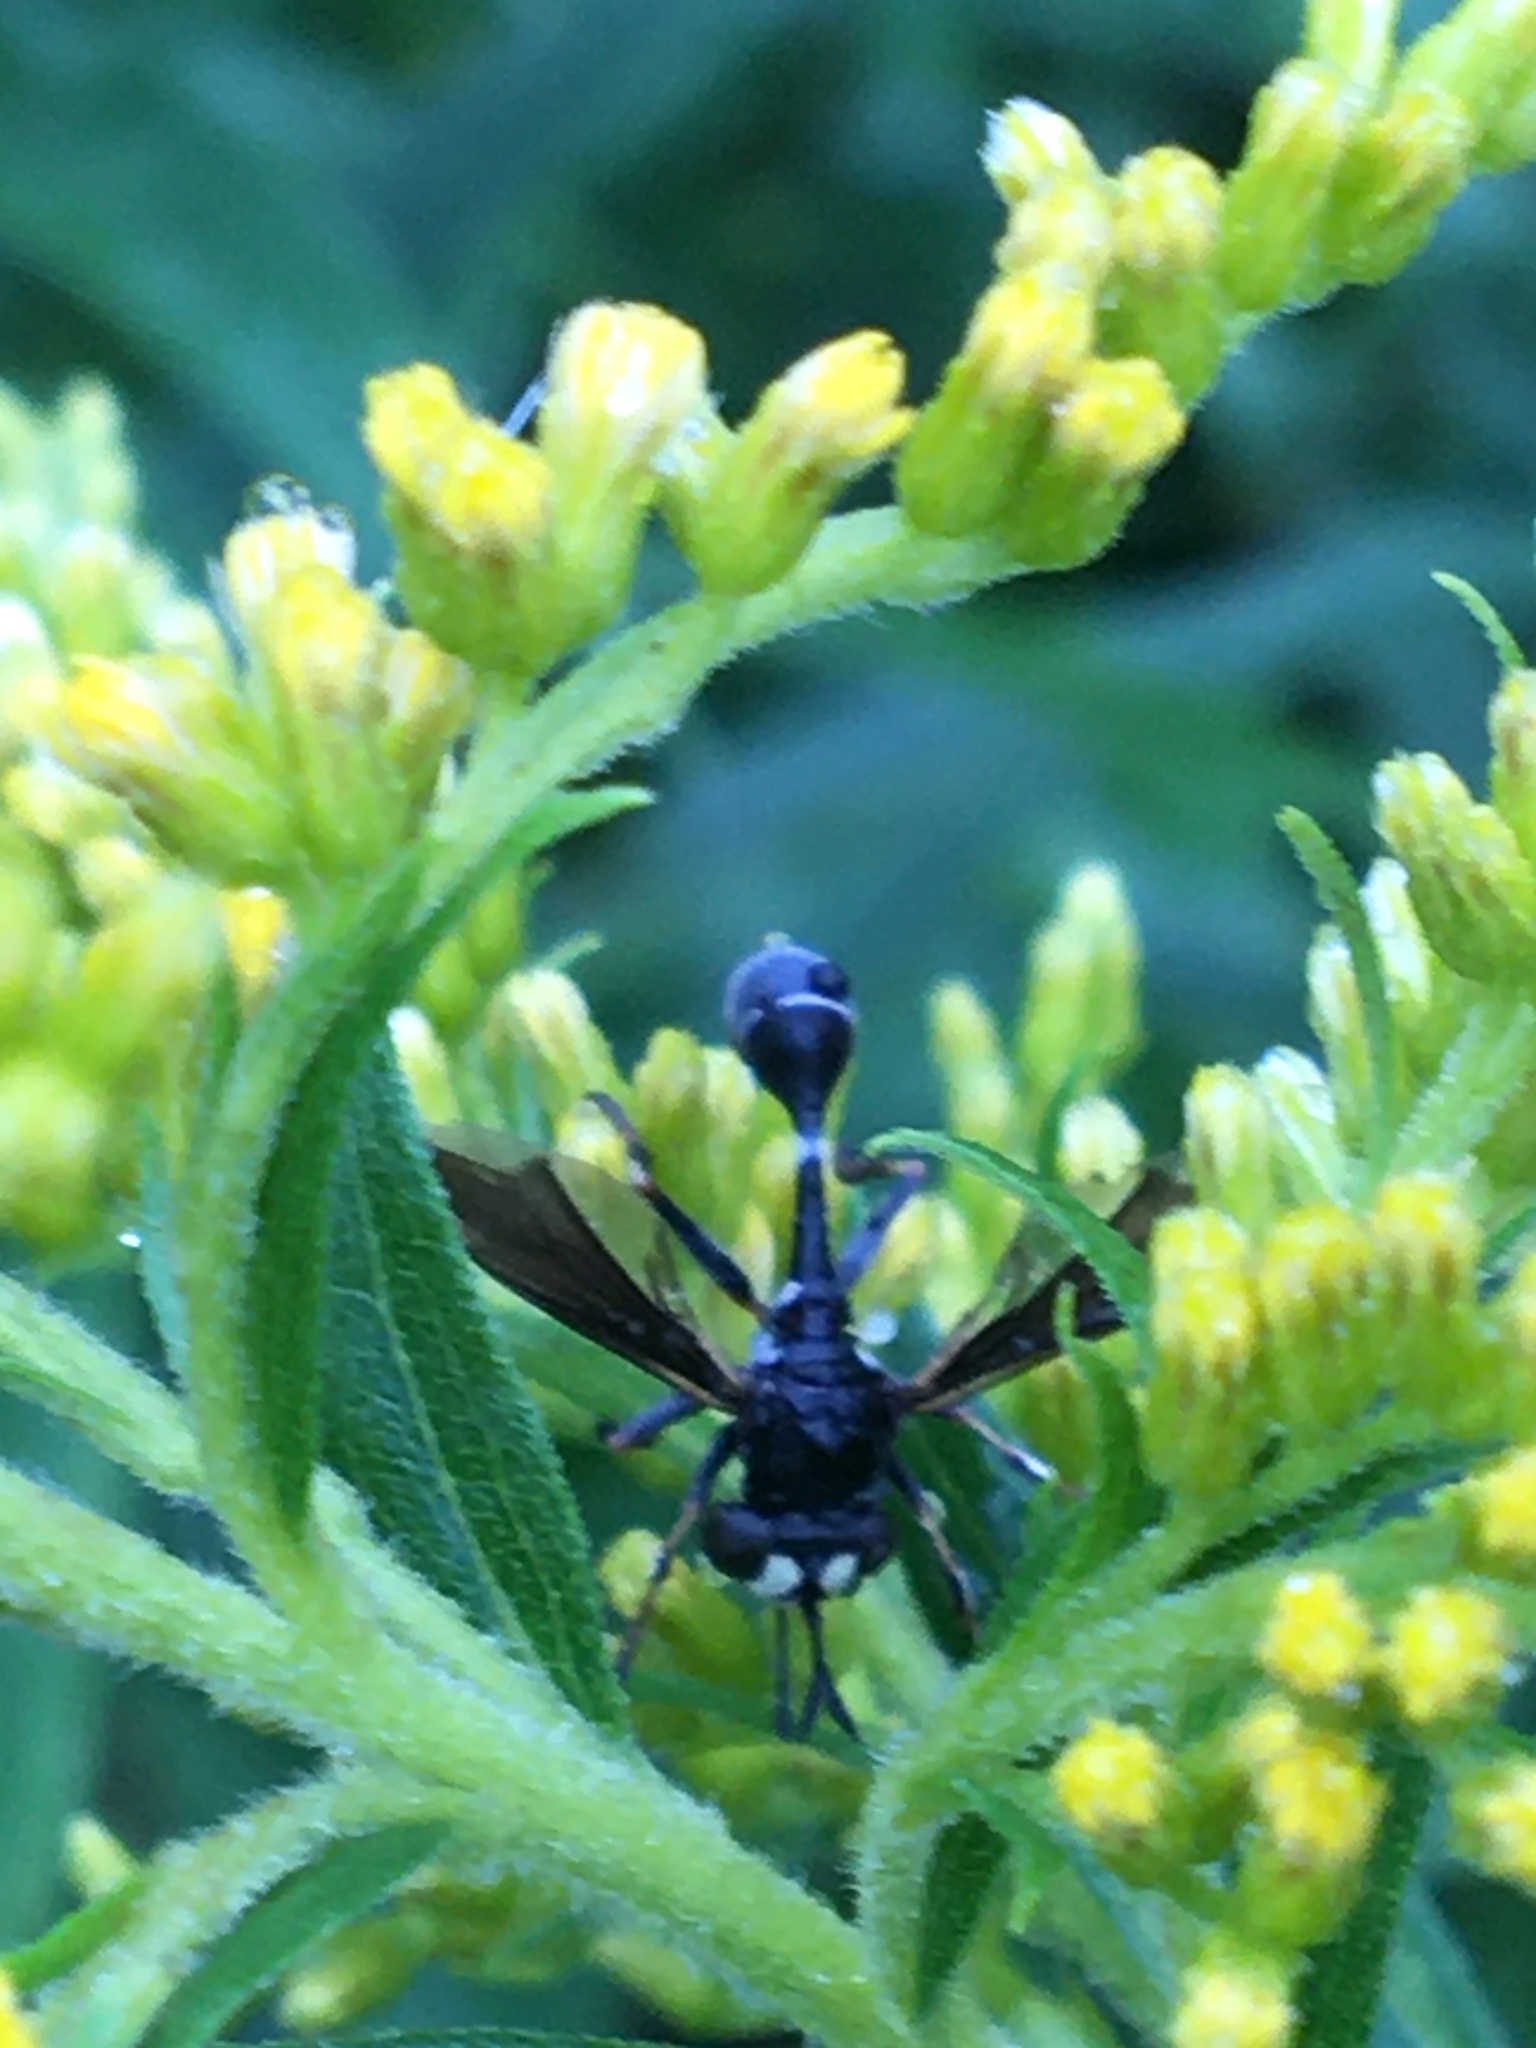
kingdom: Animalia
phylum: Arthropoda
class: Insecta
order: Diptera
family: Conopidae
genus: Physocephala
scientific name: Physocephala tibialis
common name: Common eastern physocephala
